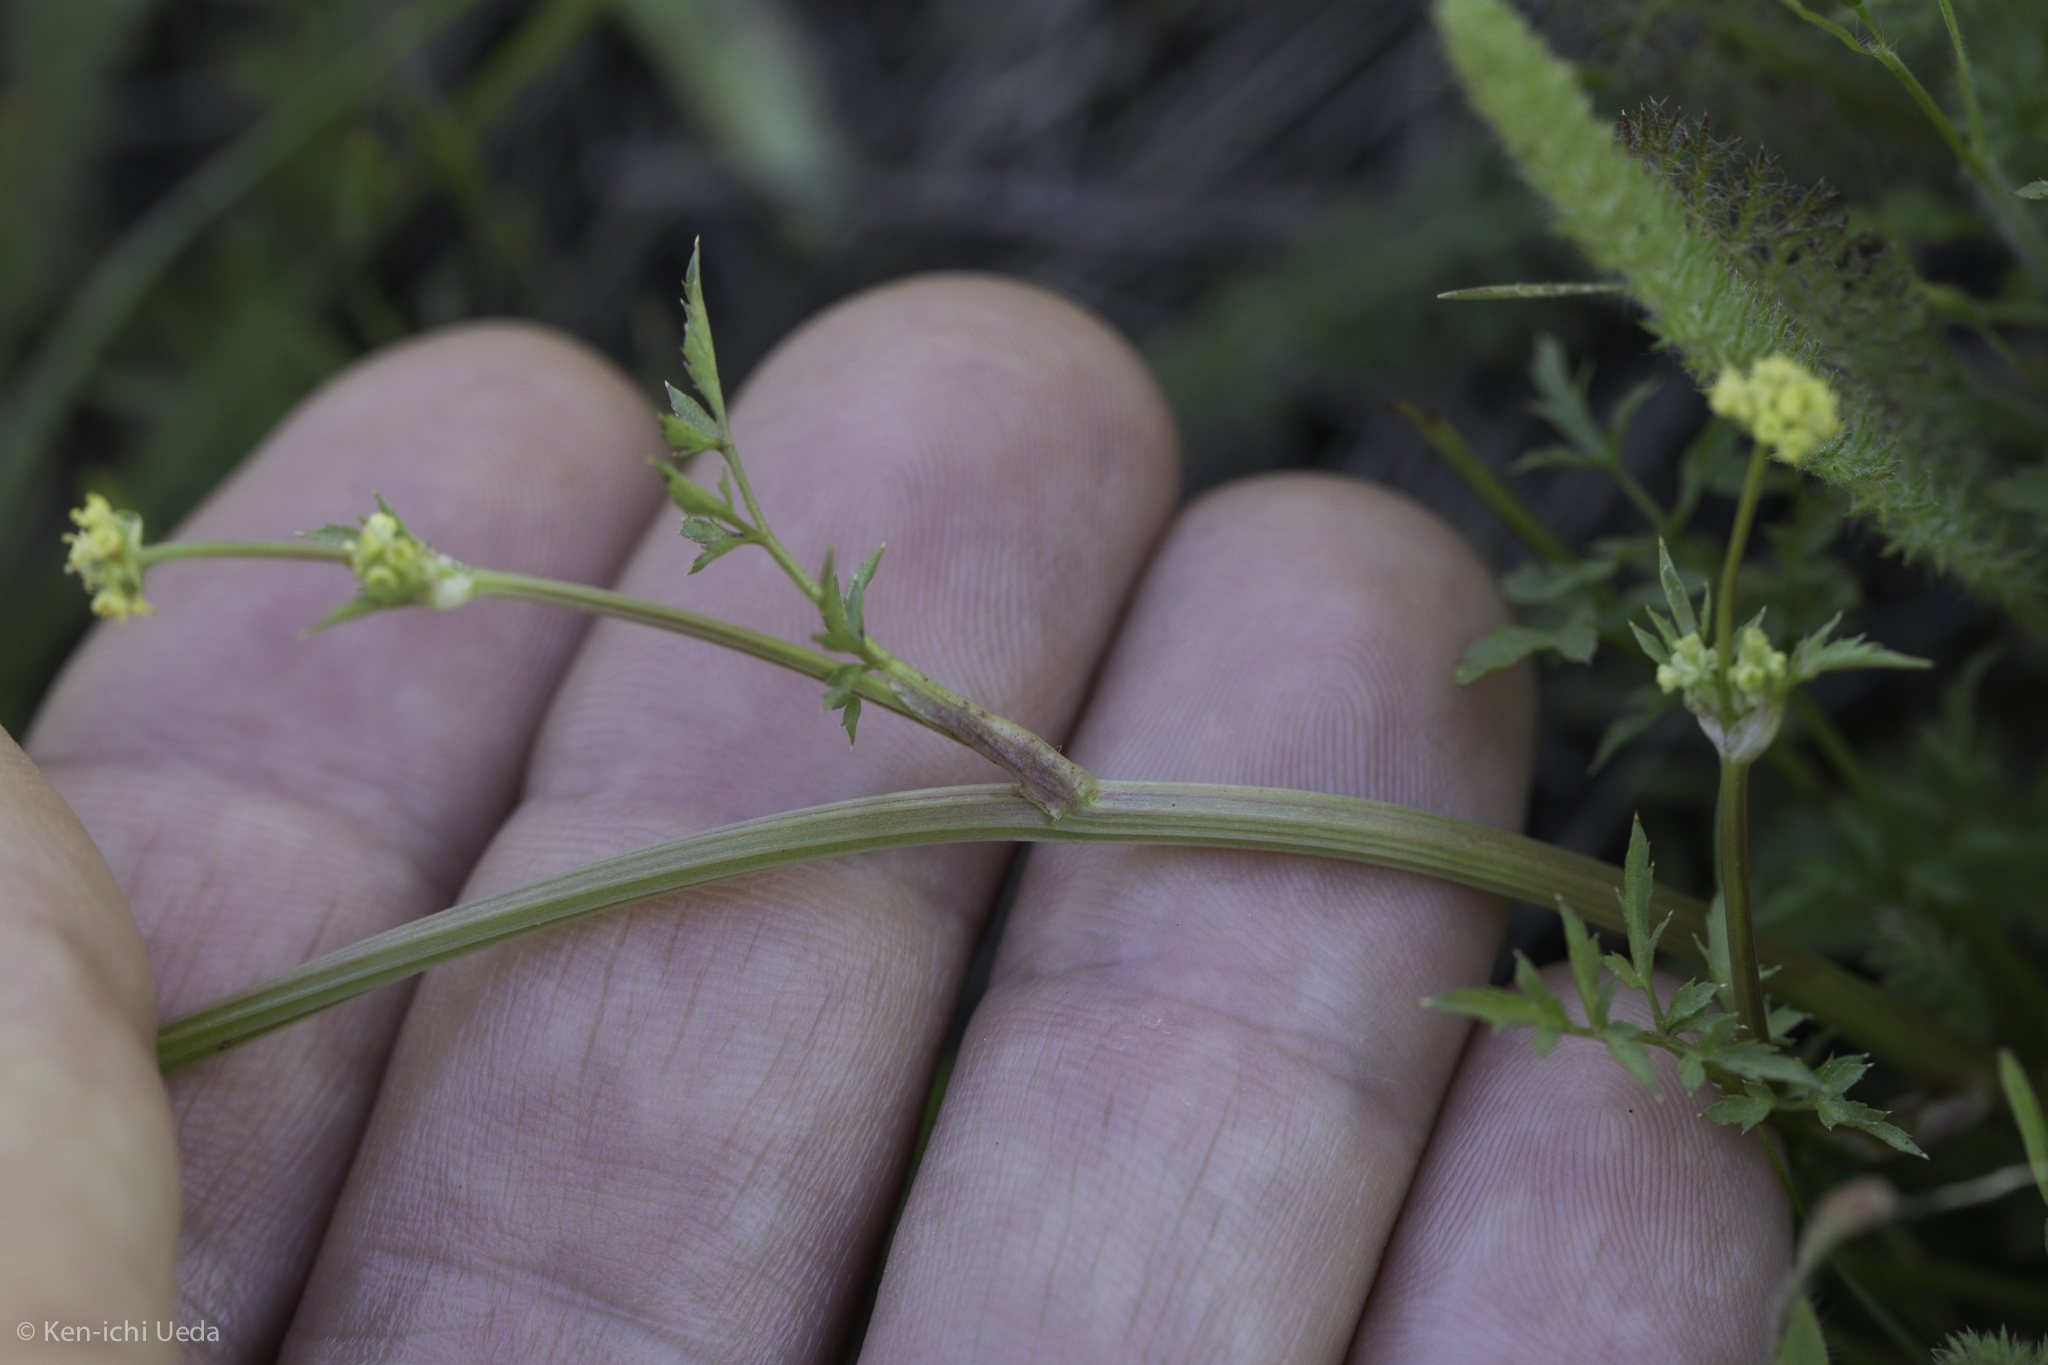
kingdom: Plantae
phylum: Tracheophyta
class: Magnoliopsida
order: Apiales
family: Apiaceae
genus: Sanicula
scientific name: Sanicula bipinnata
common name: Poison sanicle
